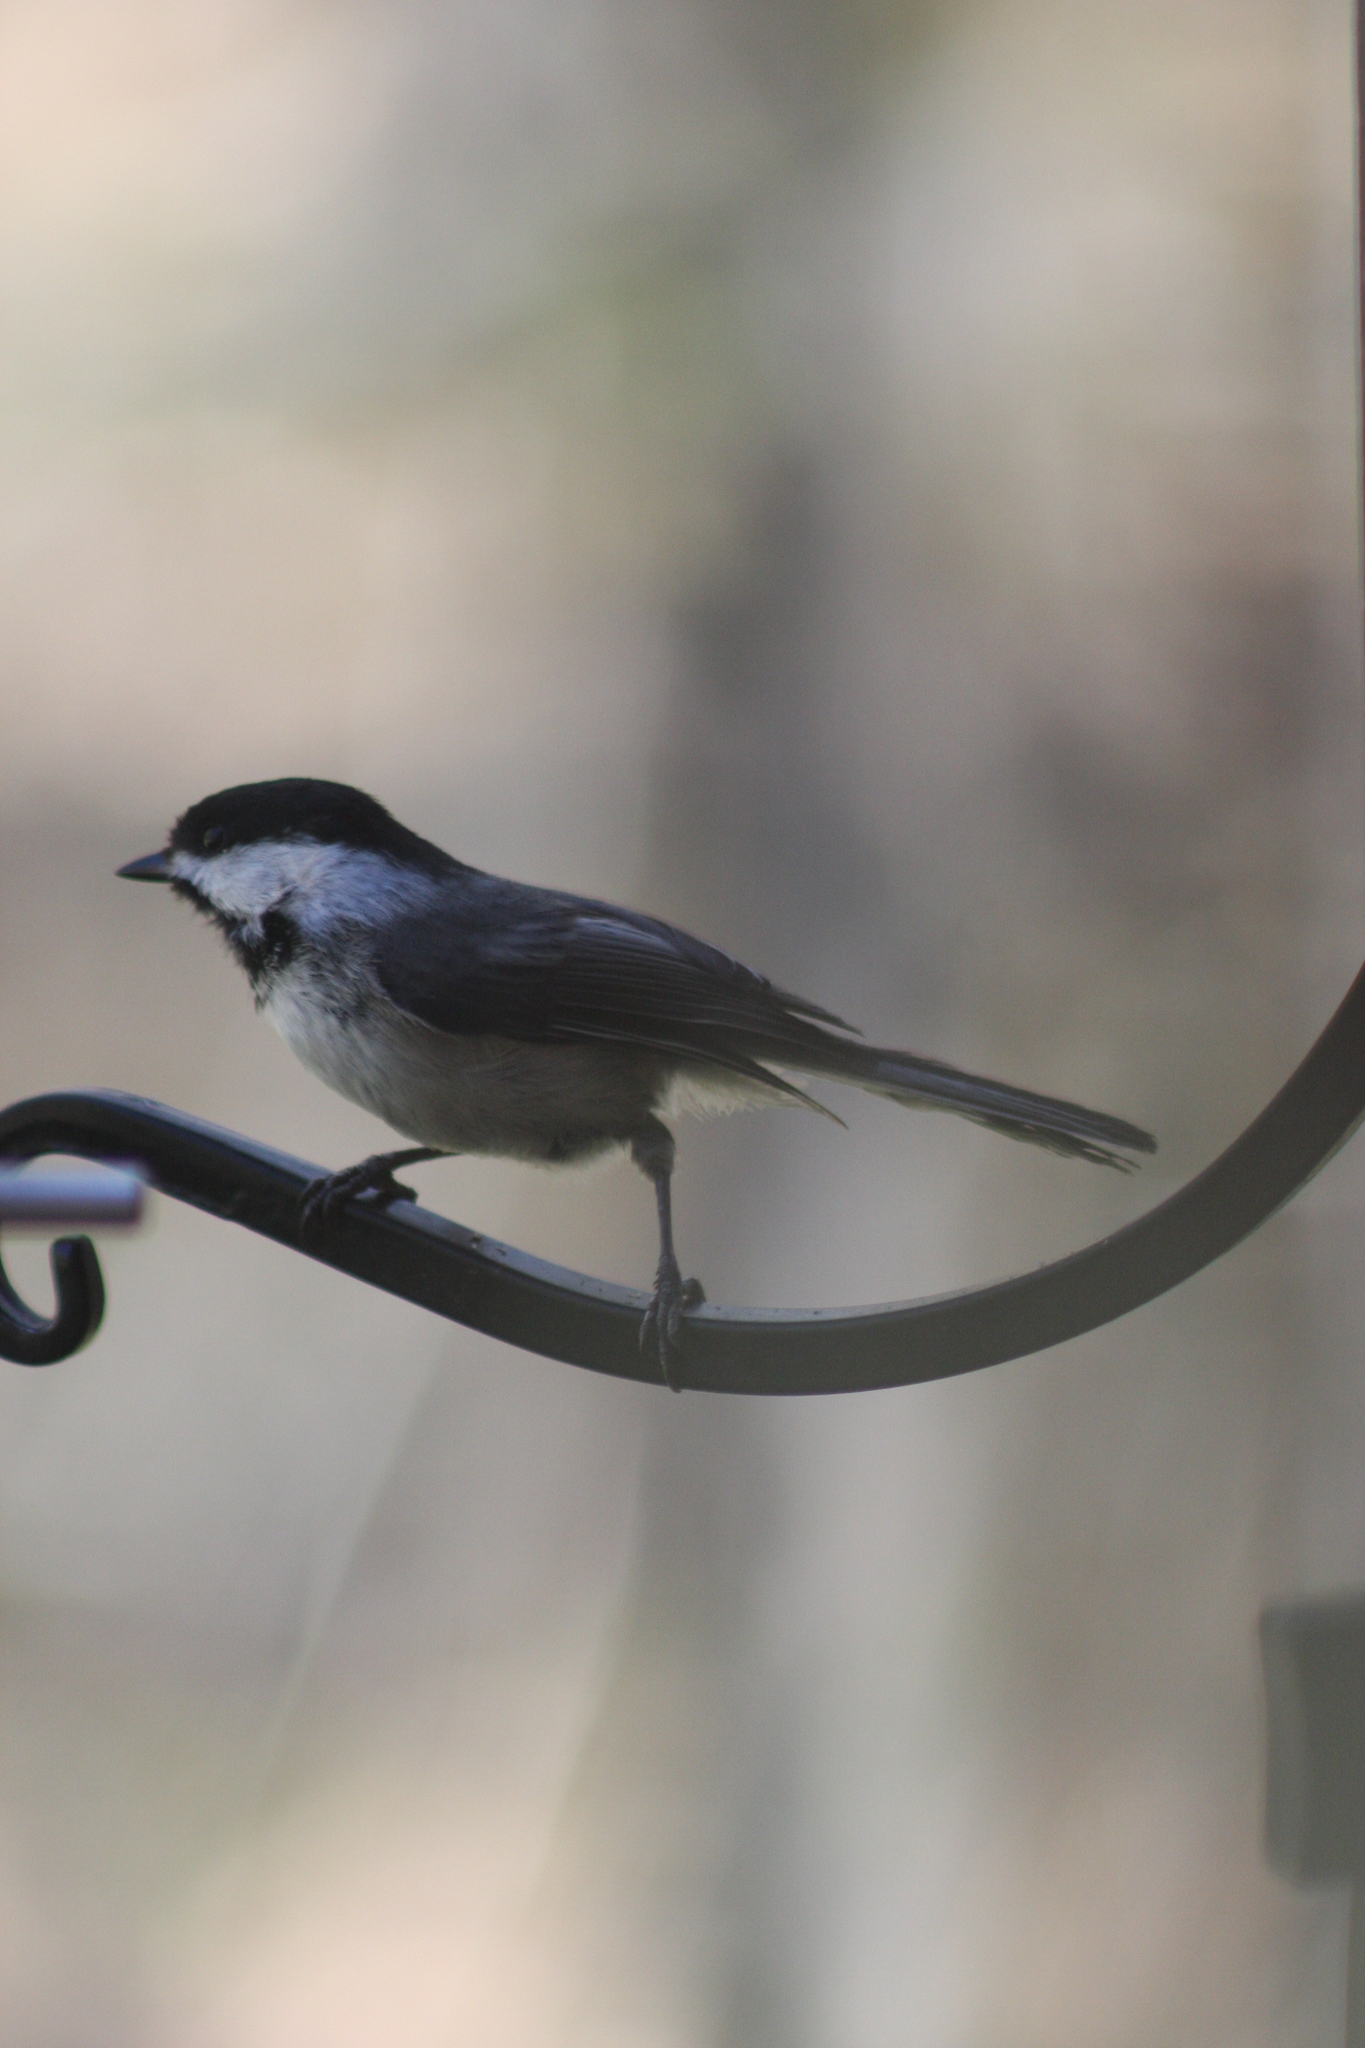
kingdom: Animalia
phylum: Chordata
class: Aves
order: Passeriformes
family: Paridae
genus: Poecile
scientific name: Poecile atricapillus
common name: Black-capped chickadee
